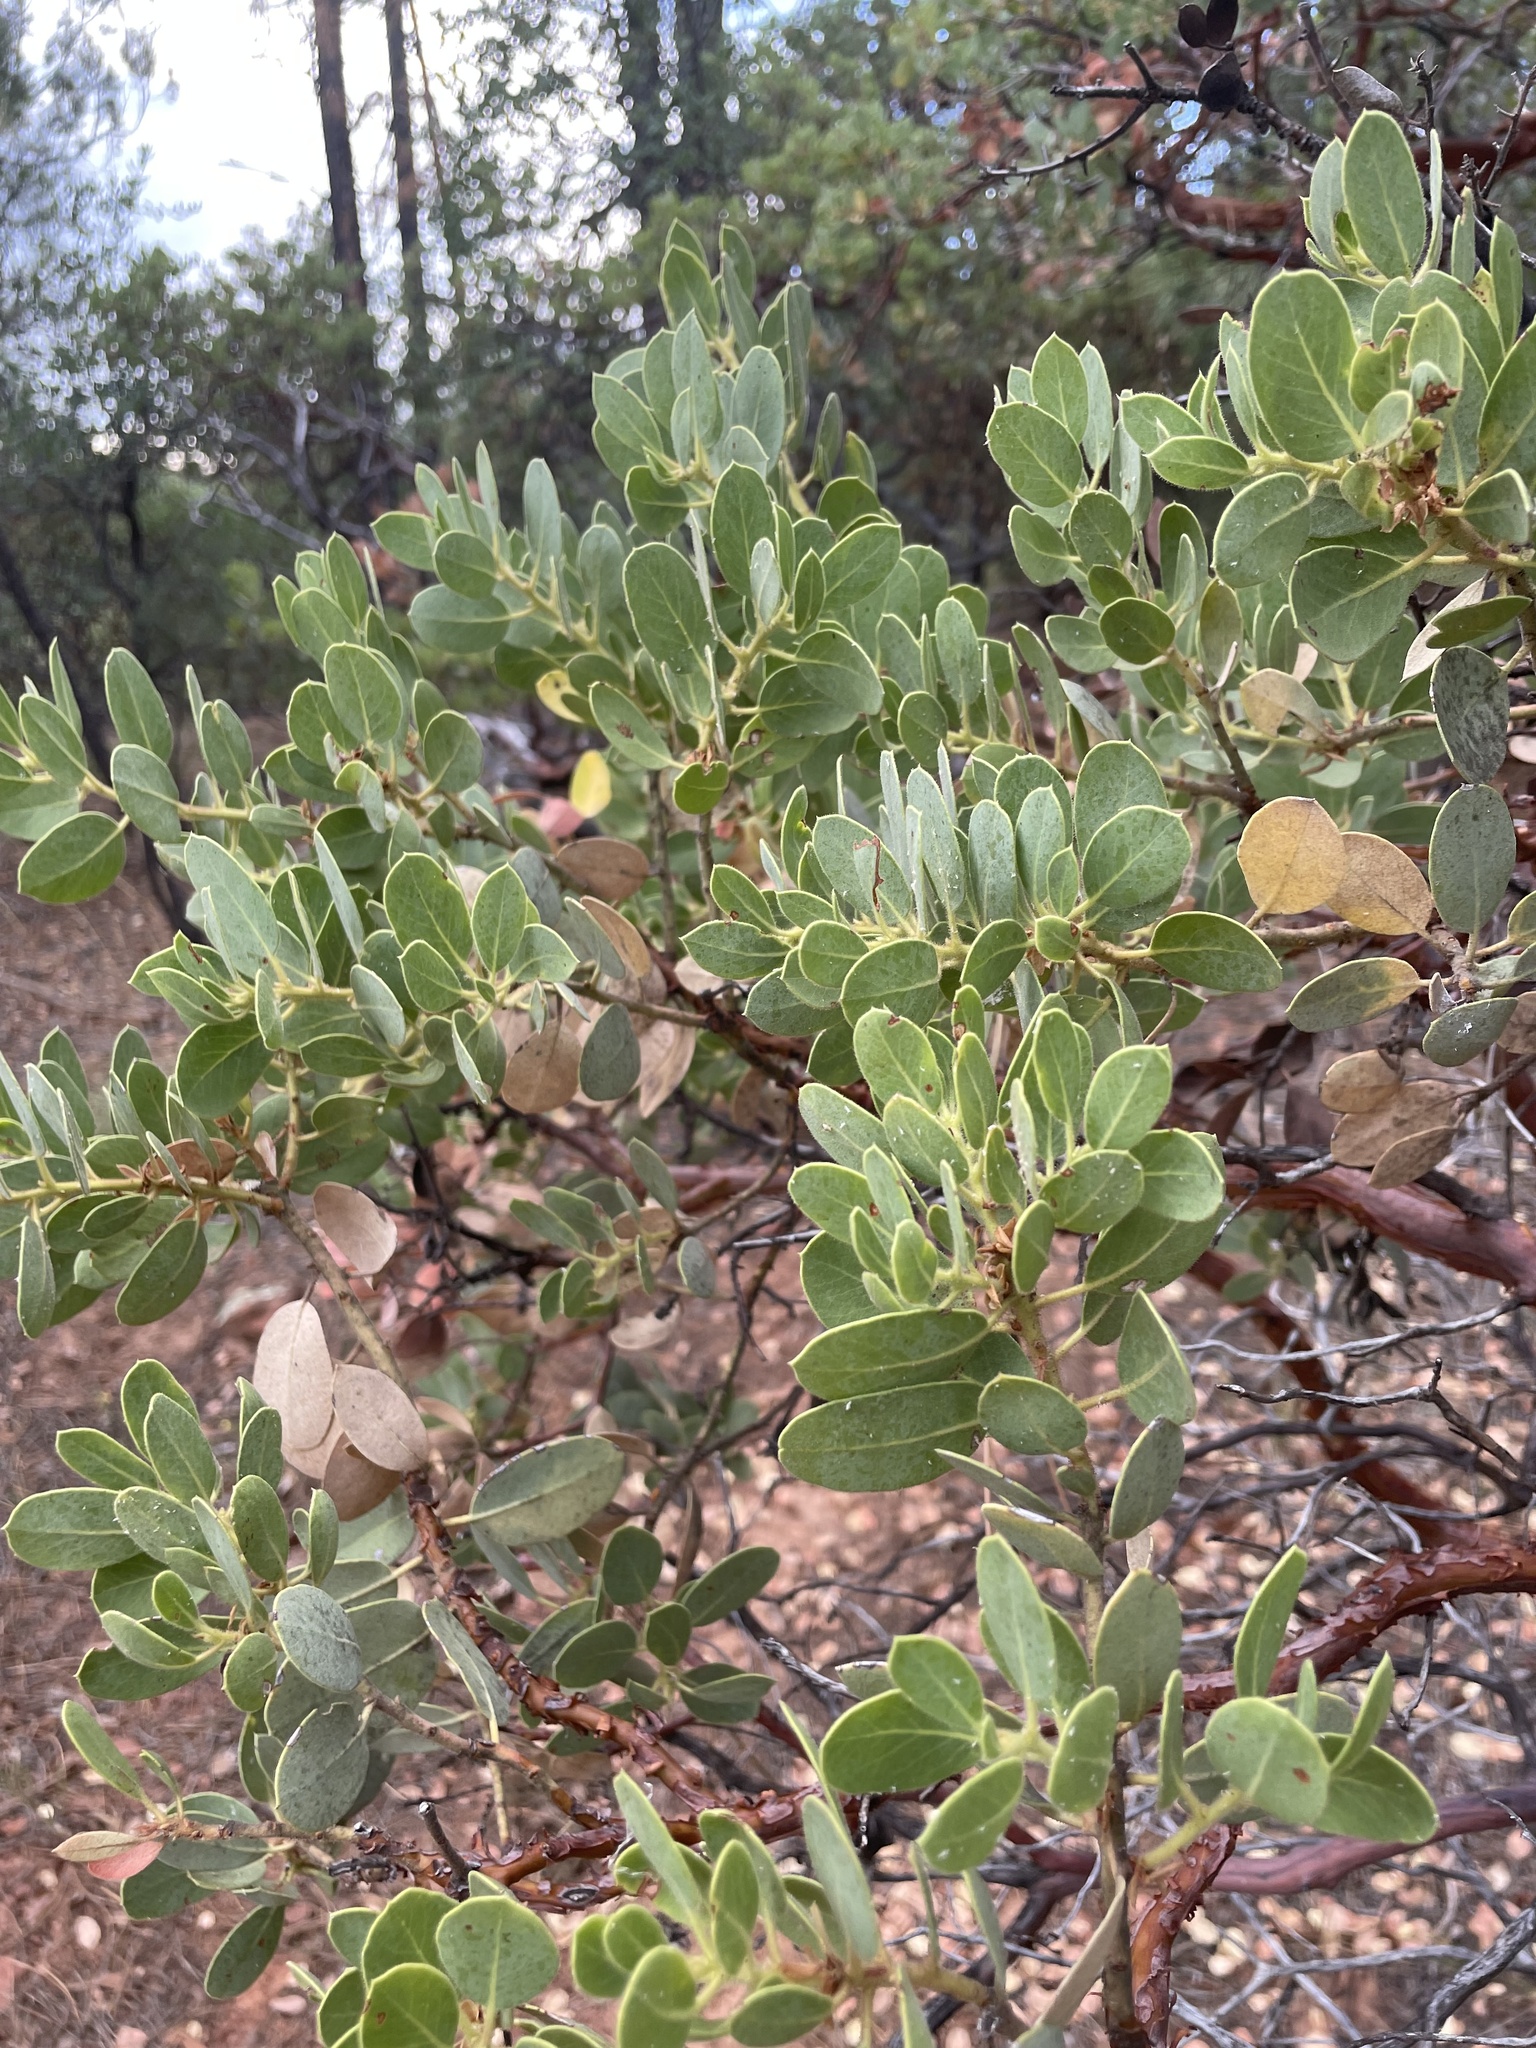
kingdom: Plantae
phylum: Tracheophyta
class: Magnoliopsida
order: Ericales
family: Ericaceae
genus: Arctostaphylos
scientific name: Arctostaphylos pringlei
